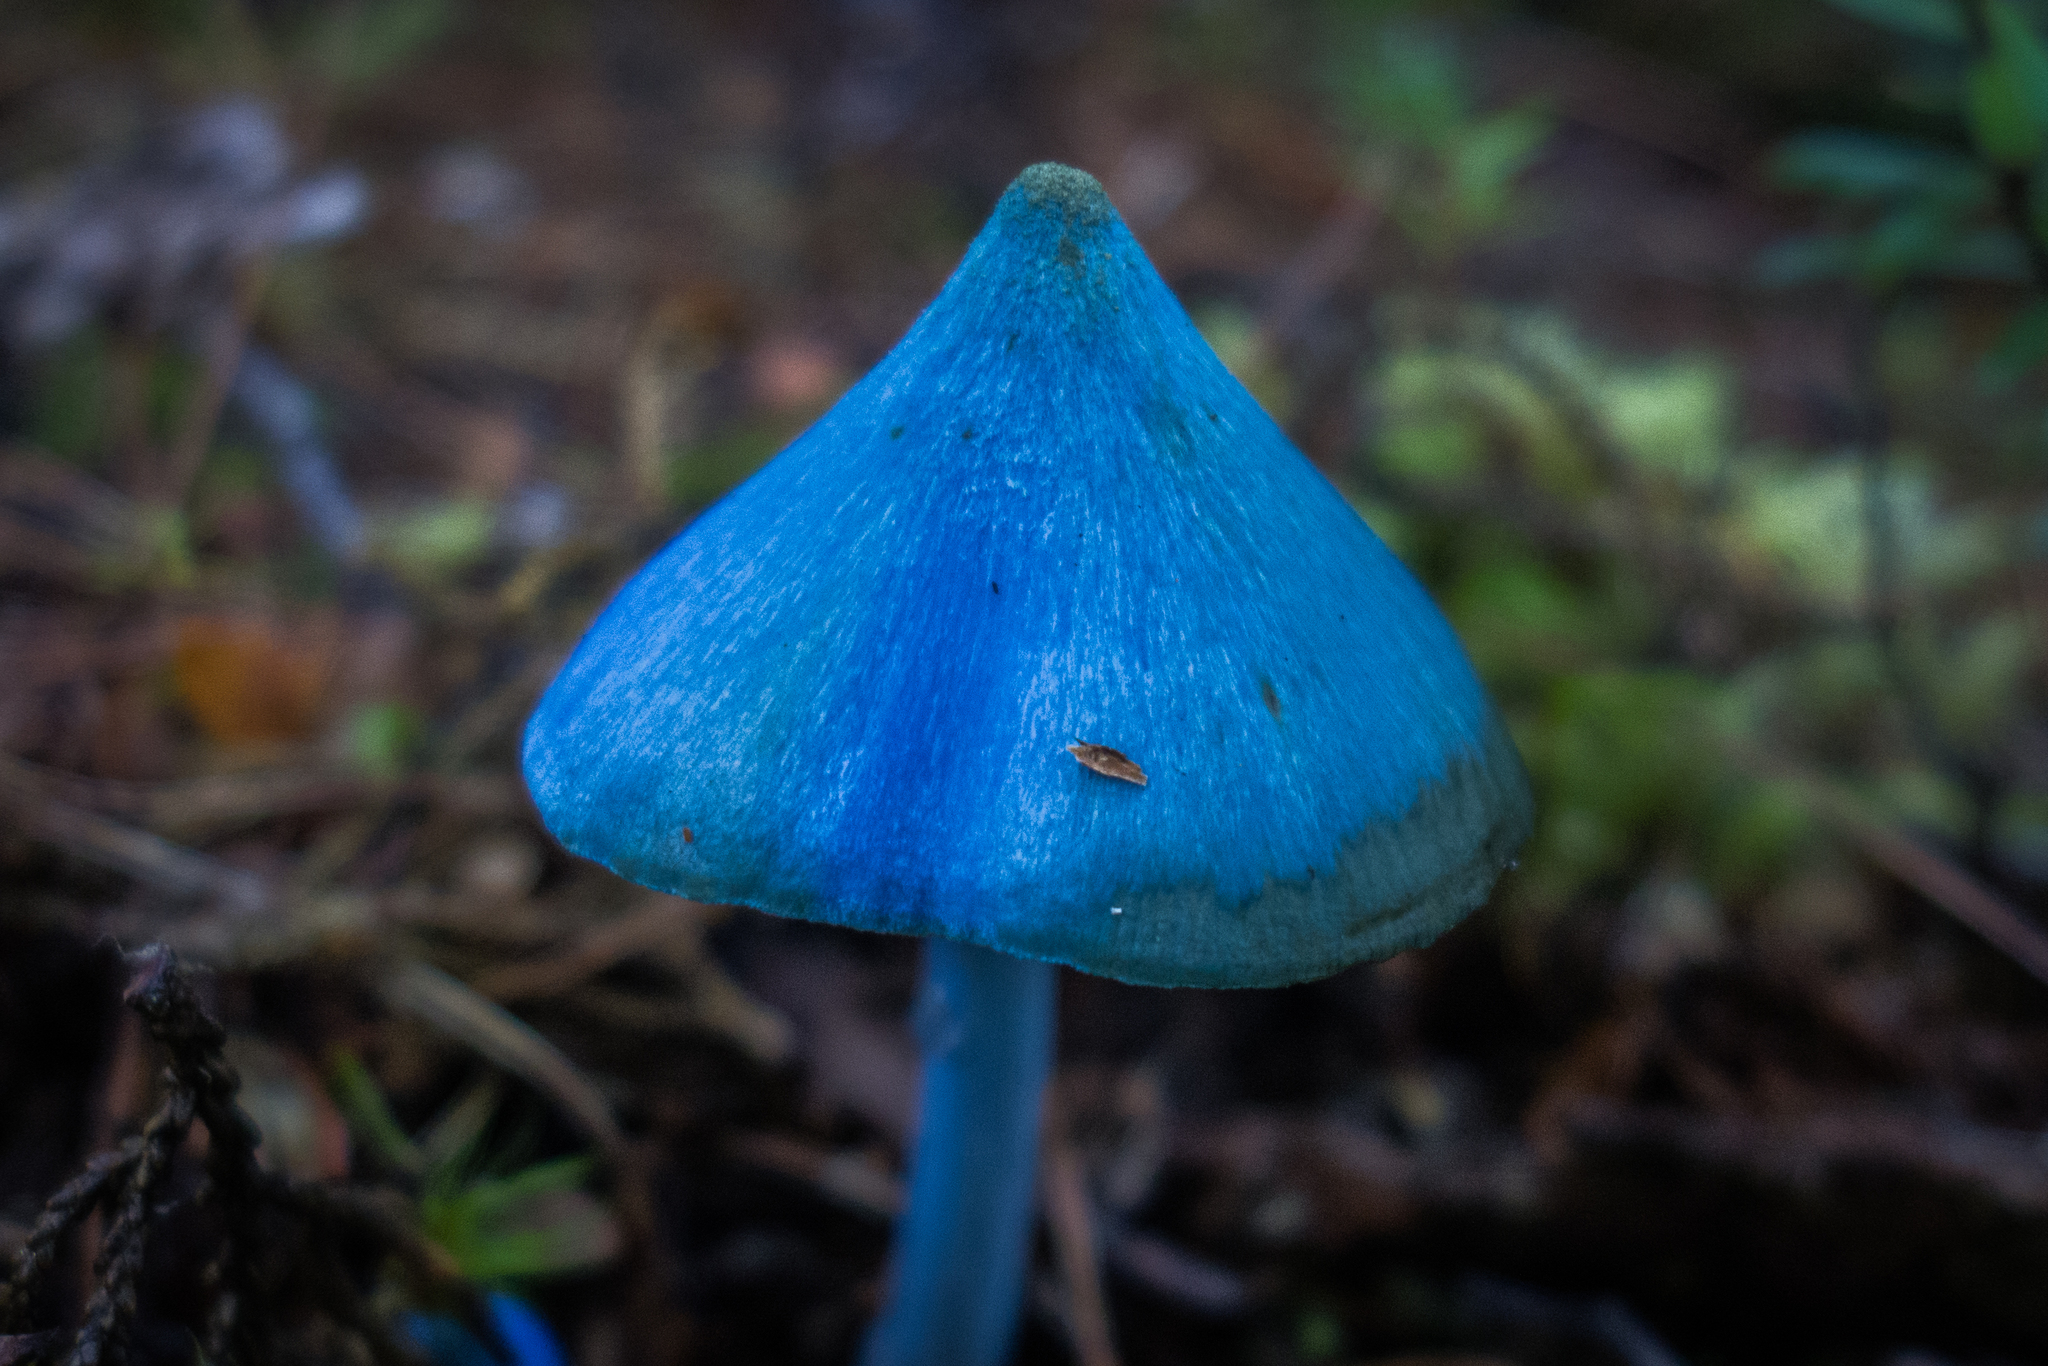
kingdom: Fungi
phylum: Basidiomycota
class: Agaricomycetes
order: Agaricales
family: Entolomataceae
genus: Entoloma
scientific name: Entoloma hochstetteri
